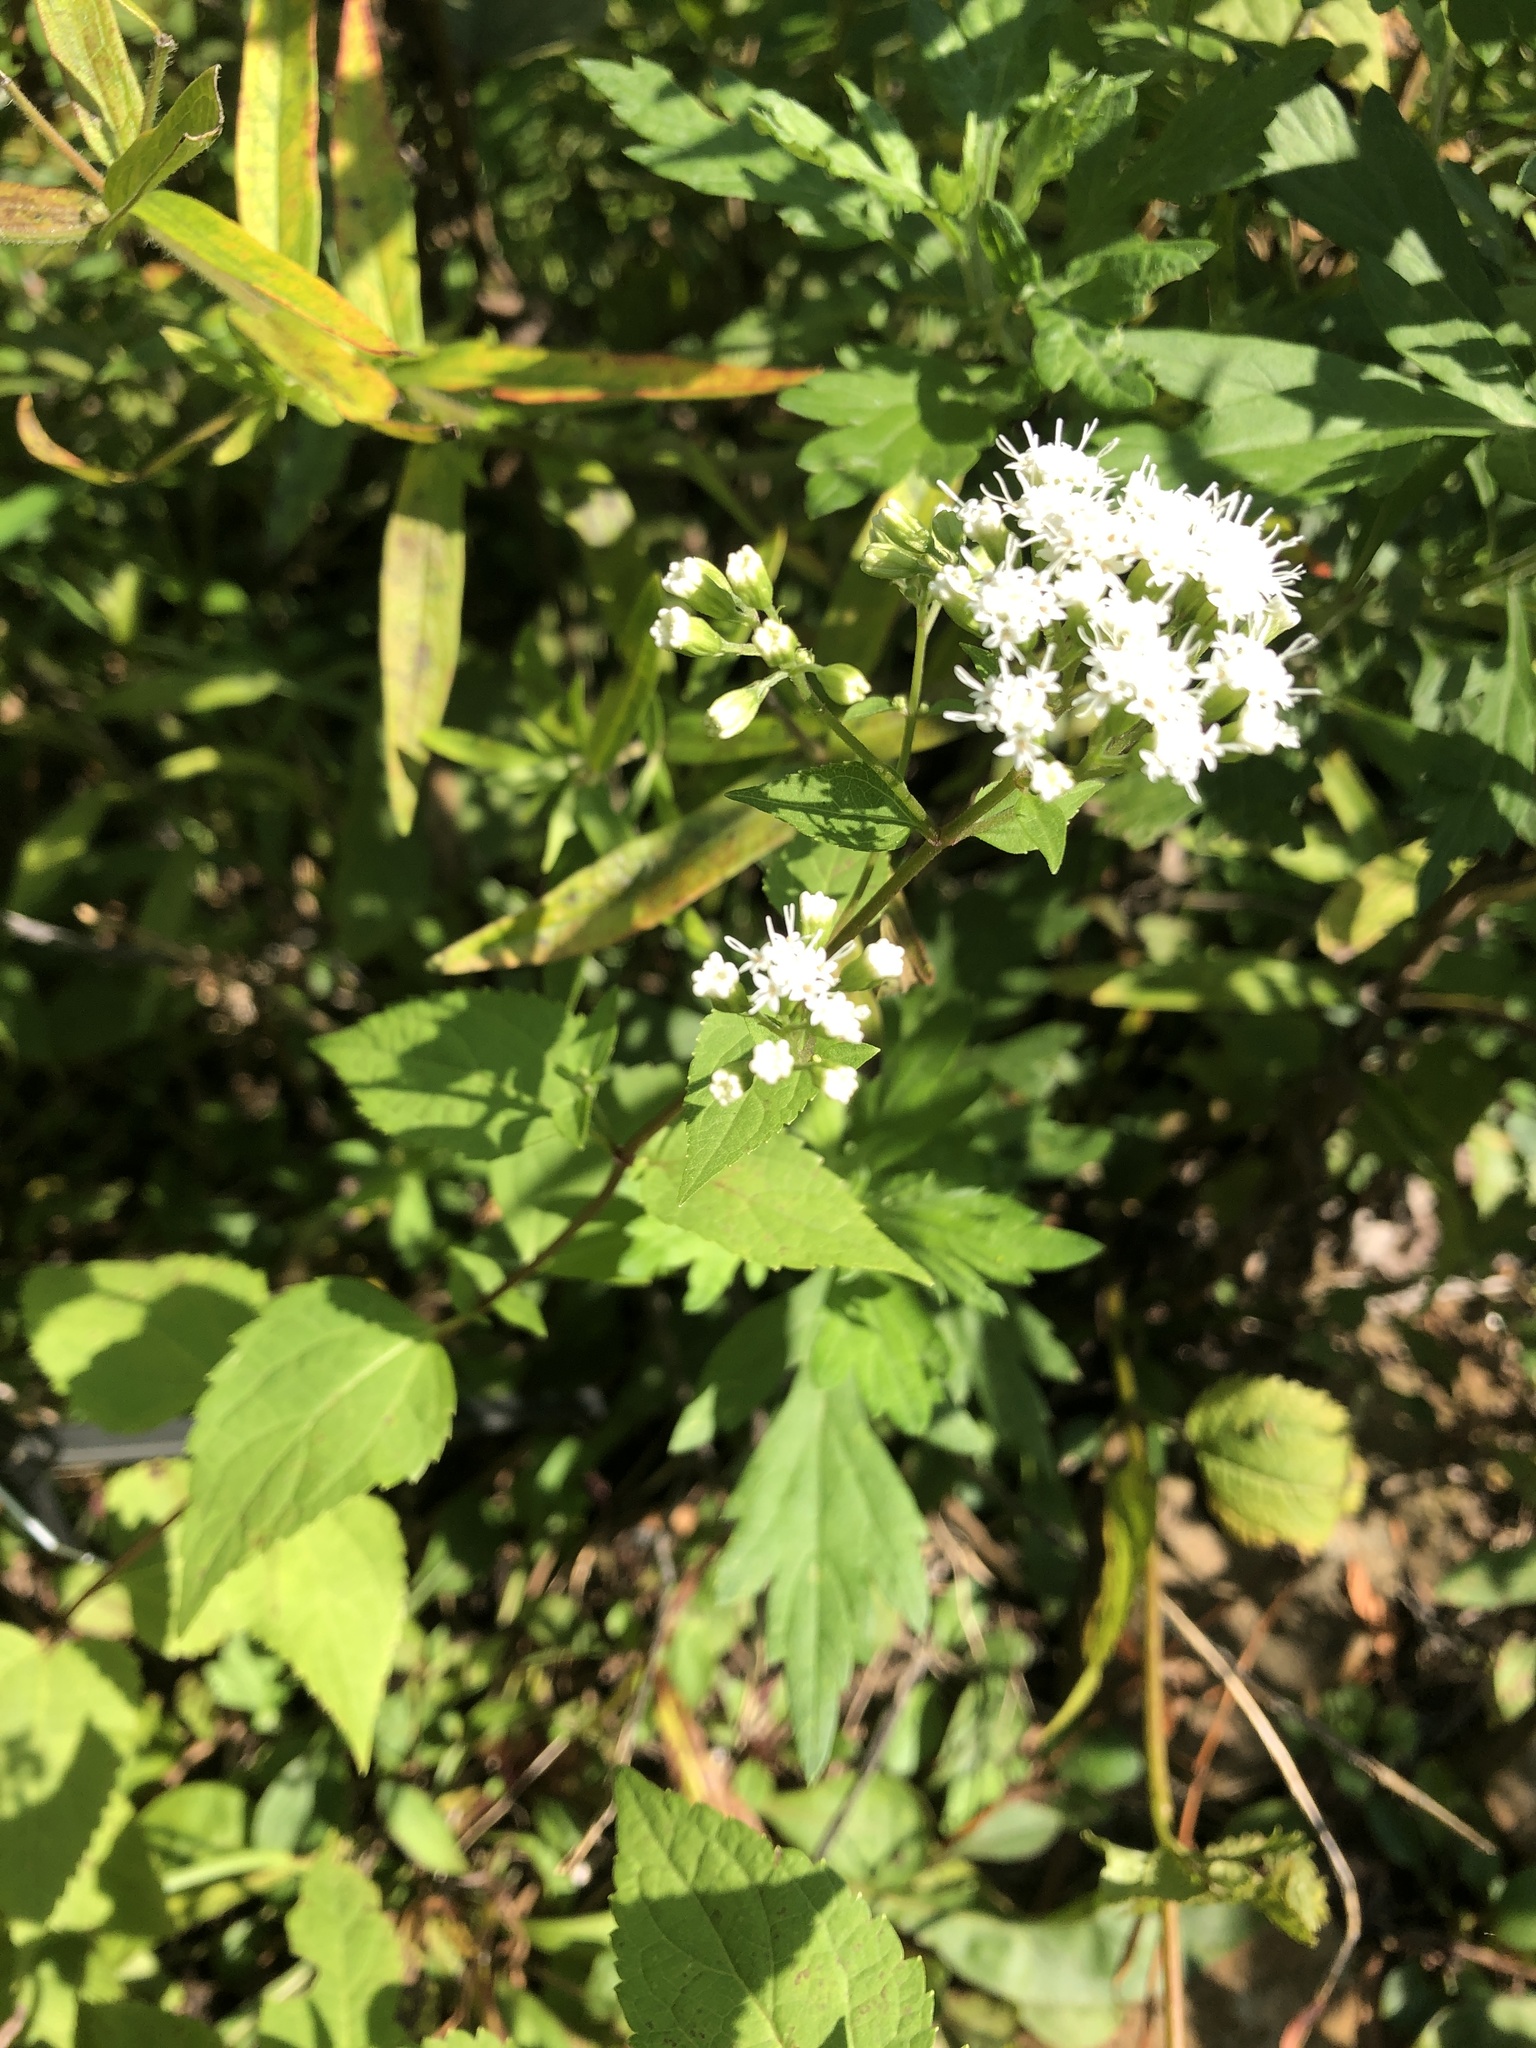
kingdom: Plantae
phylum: Tracheophyta
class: Magnoliopsida
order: Asterales
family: Asteraceae
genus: Ageratina
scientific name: Ageratina altissima
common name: White snakeroot
